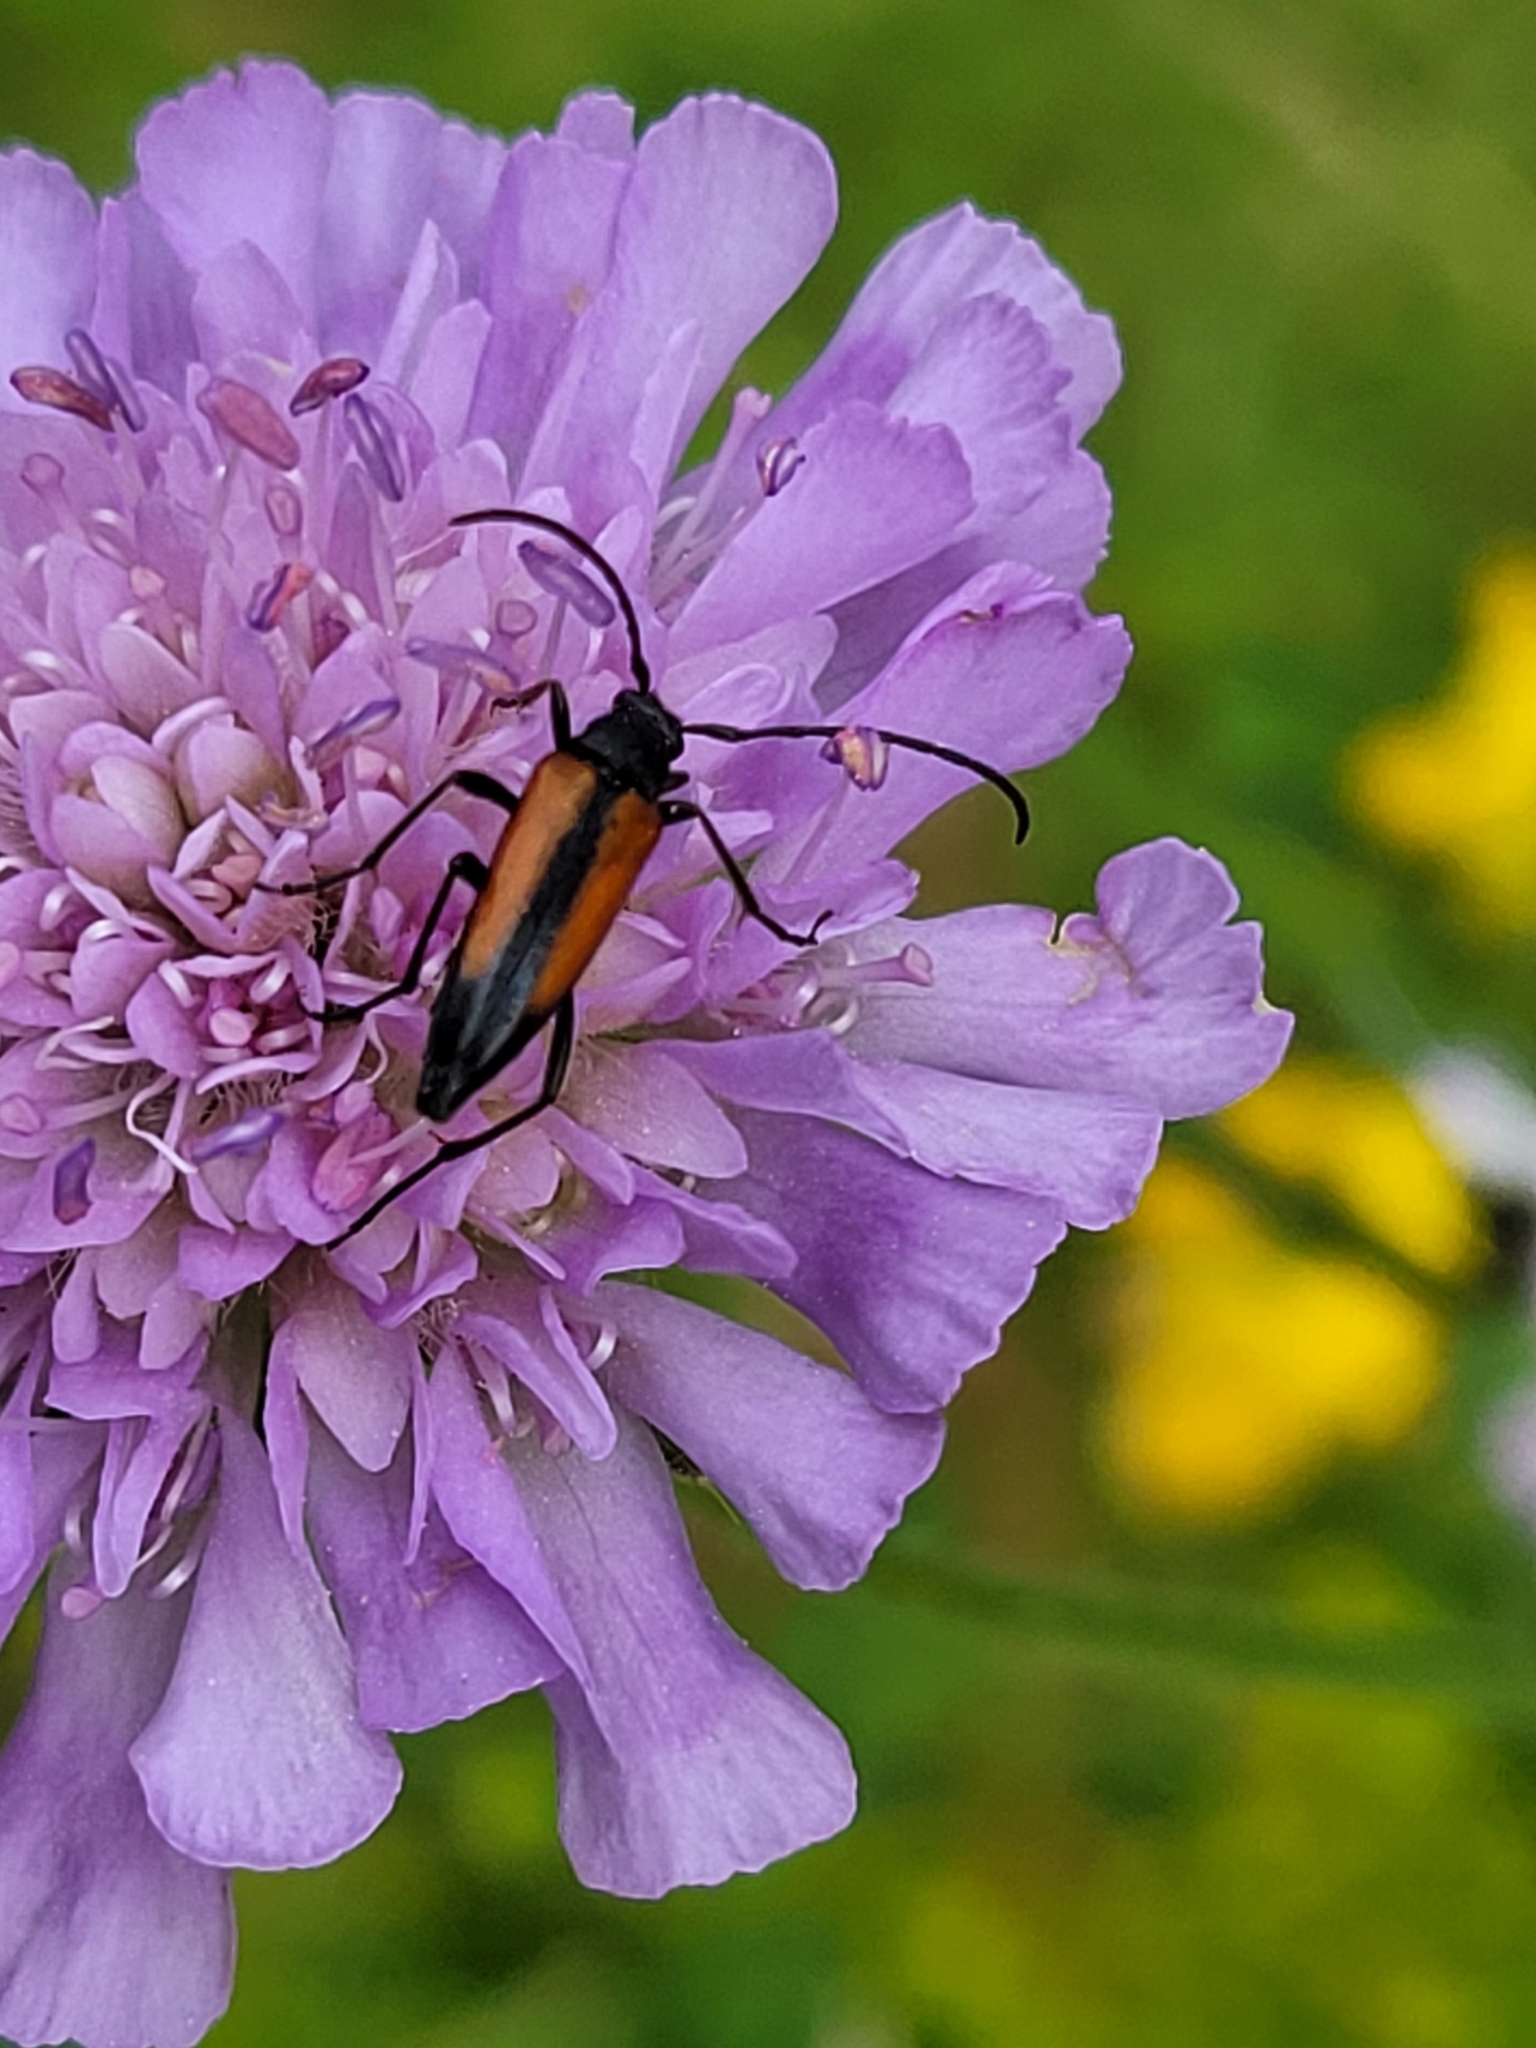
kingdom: Animalia
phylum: Arthropoda
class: Insecta
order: Coleoptera
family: Cerambycidae
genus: Stenurella
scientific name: Stenurella melanura
